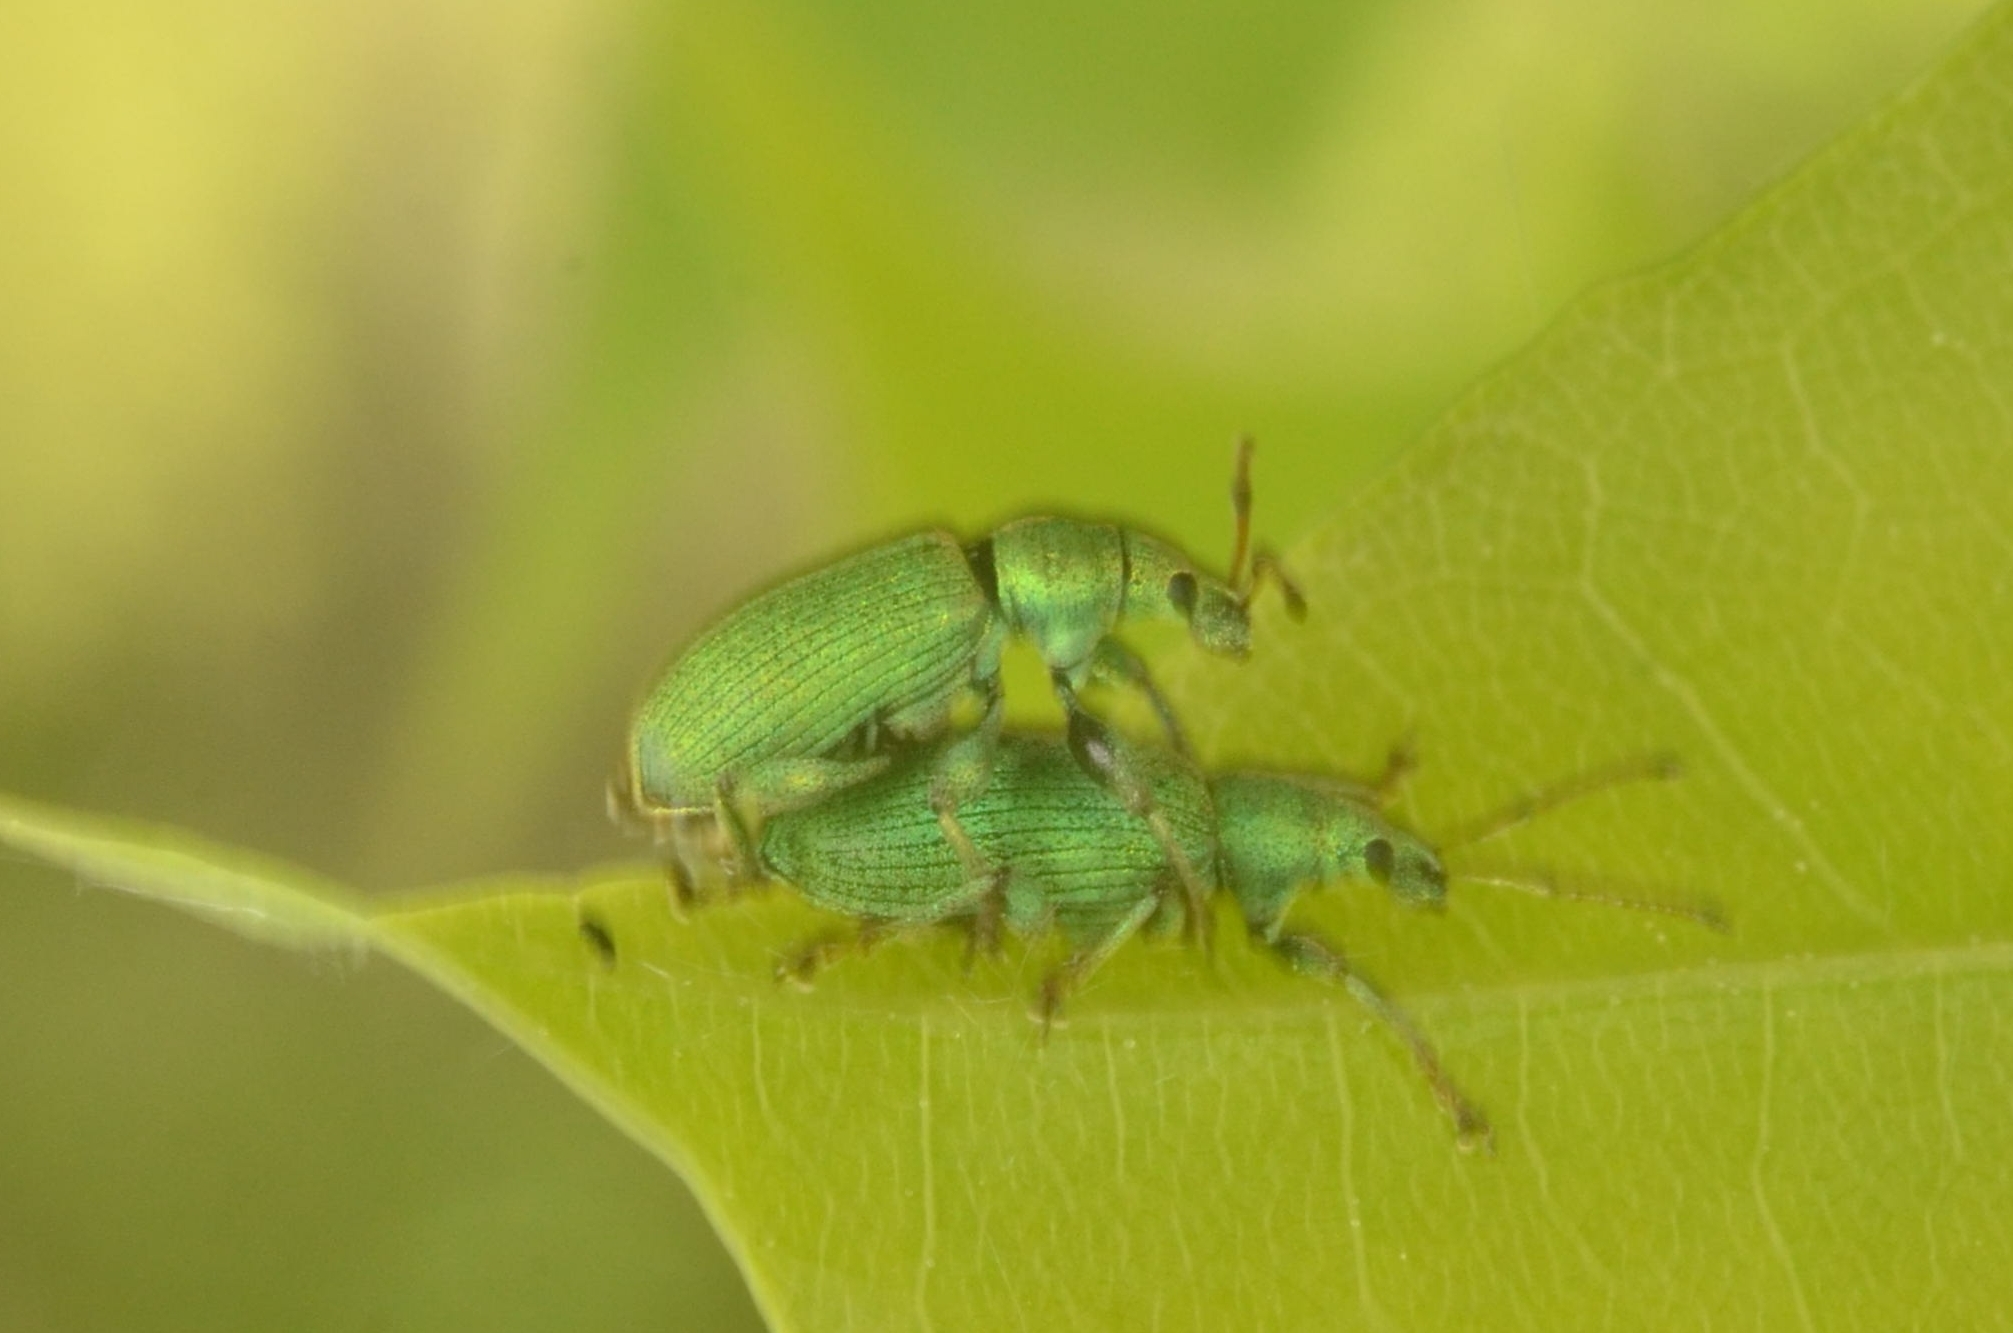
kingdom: Animalia
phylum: Arthropoda
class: Insecta
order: Coleoptera
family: Curculionidae
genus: Phyllobius
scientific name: Phyllobius maculicornis
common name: Green leaf weevil
